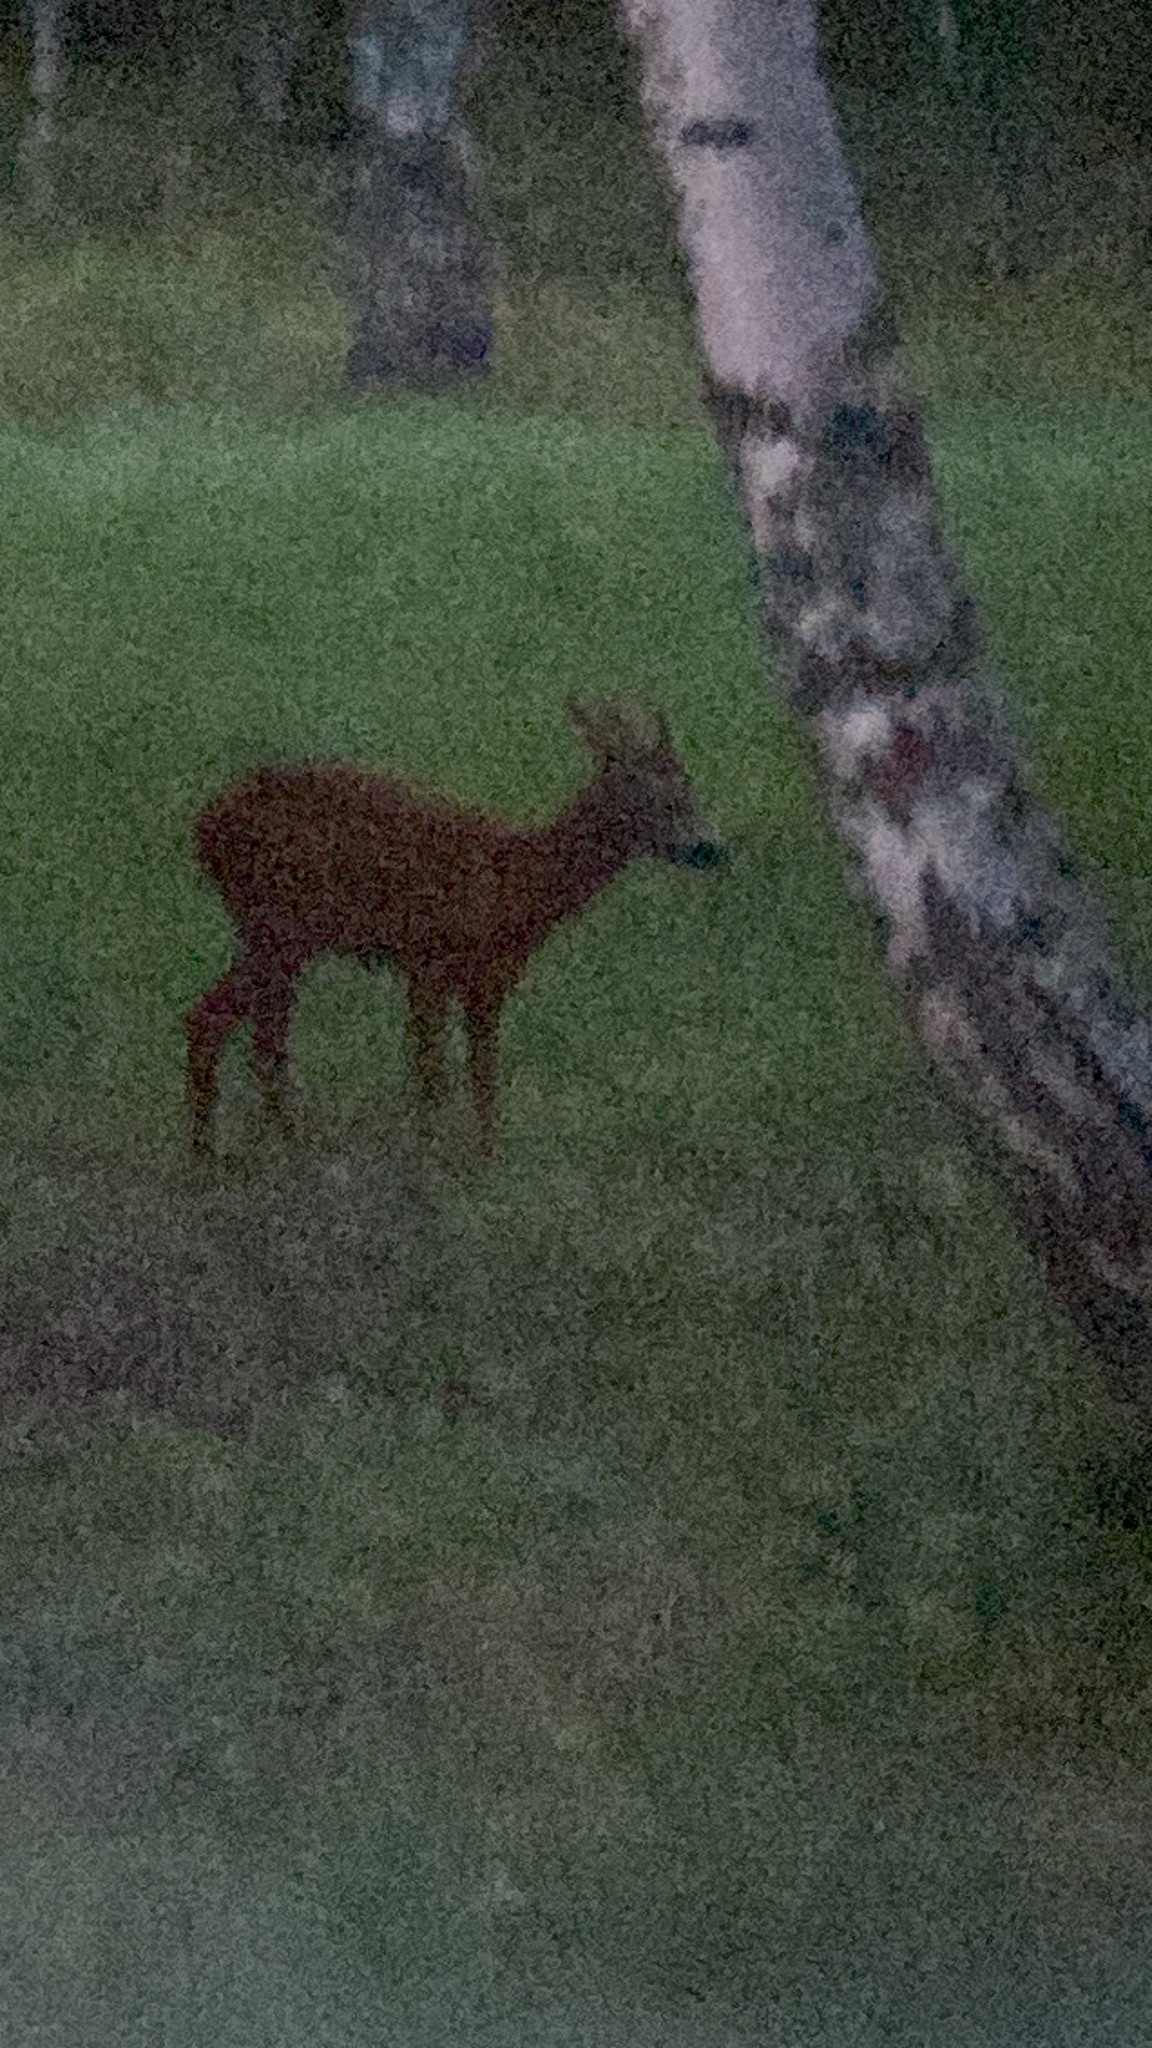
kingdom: Animalia
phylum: Chordata
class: Mammalia
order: Artiodactyla
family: Cervidae
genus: Capreolus
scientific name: Capreolus capreolus
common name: Western roe deer
